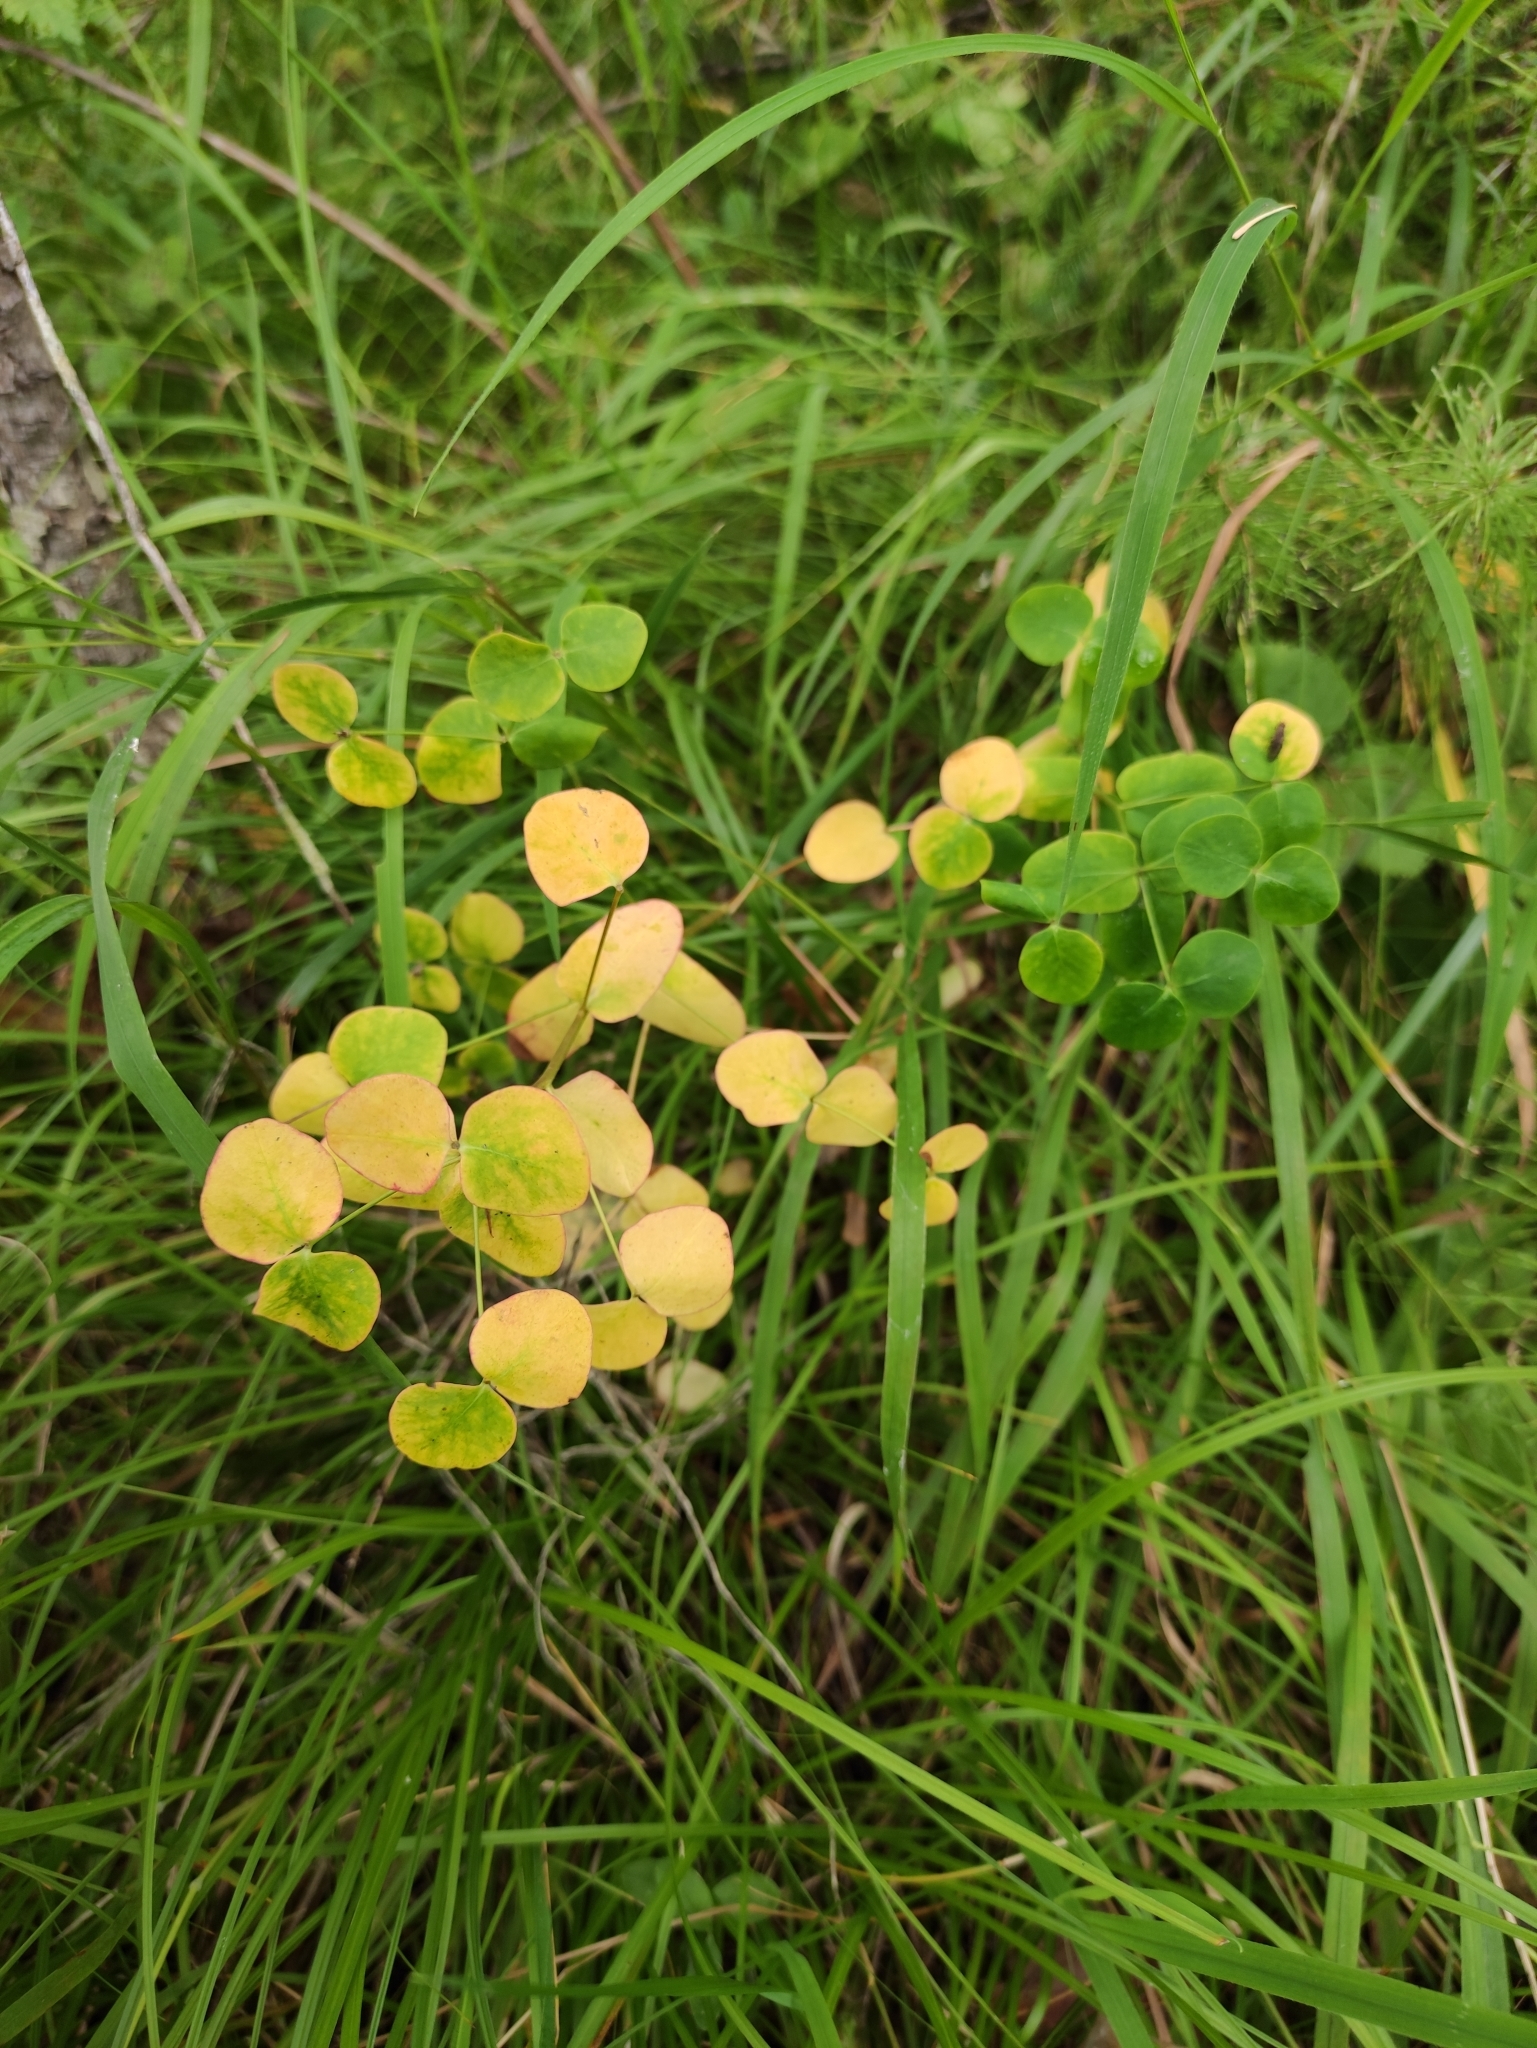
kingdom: Plantae
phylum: Tracheophyta
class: Magnoliopsida
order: Malpighiales
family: Euphorbiaceae
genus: Euphorbia
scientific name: Euphorbia jenisseiensis
